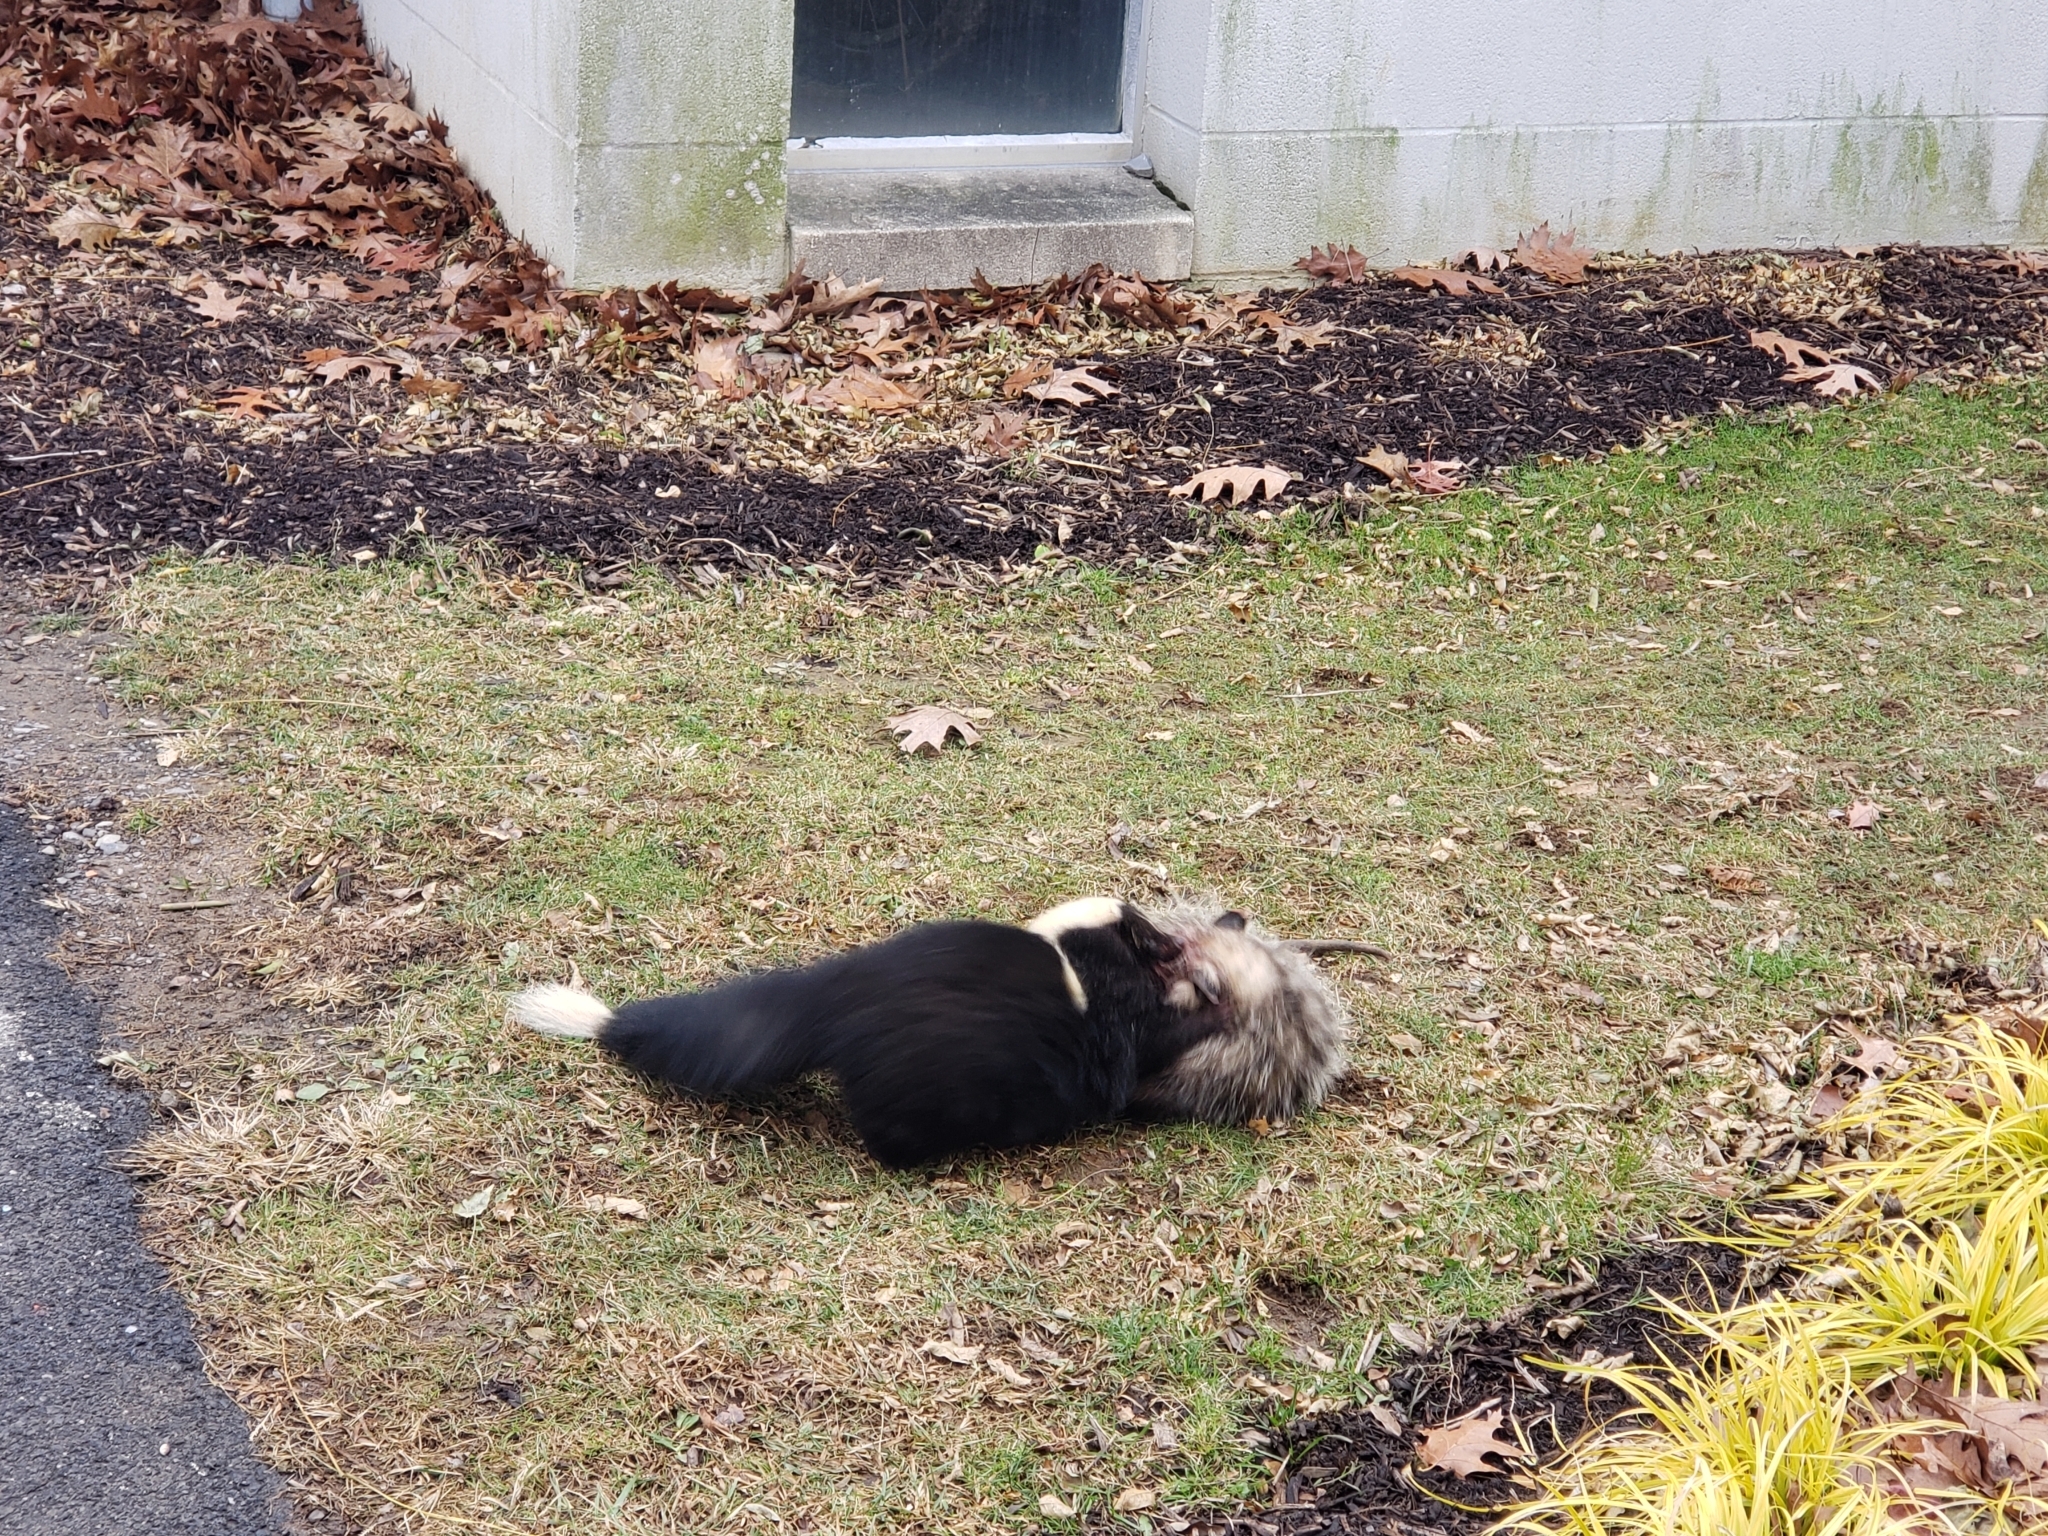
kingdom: Animalia
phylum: Chordata
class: Mammalia
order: Didelphimorphia
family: Didelphidae
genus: Didelphis
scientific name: Didelphis virginiana
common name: Virginia opossum
